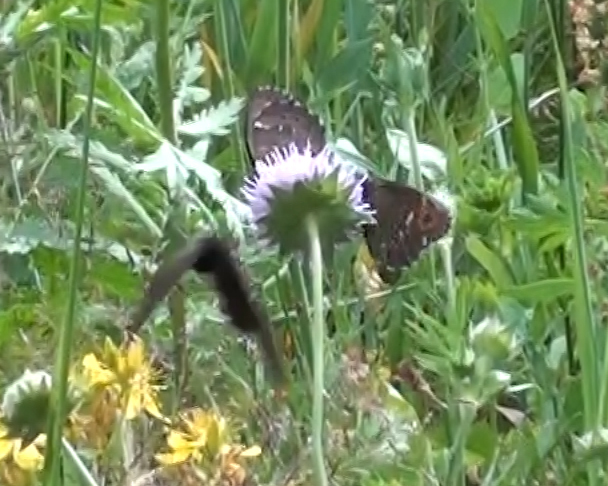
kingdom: Animalia
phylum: Arthropoda
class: Insecta
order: Lepidoptera
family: Nymphalidae
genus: Erebia
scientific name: Erebia ligea
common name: Arran brown
